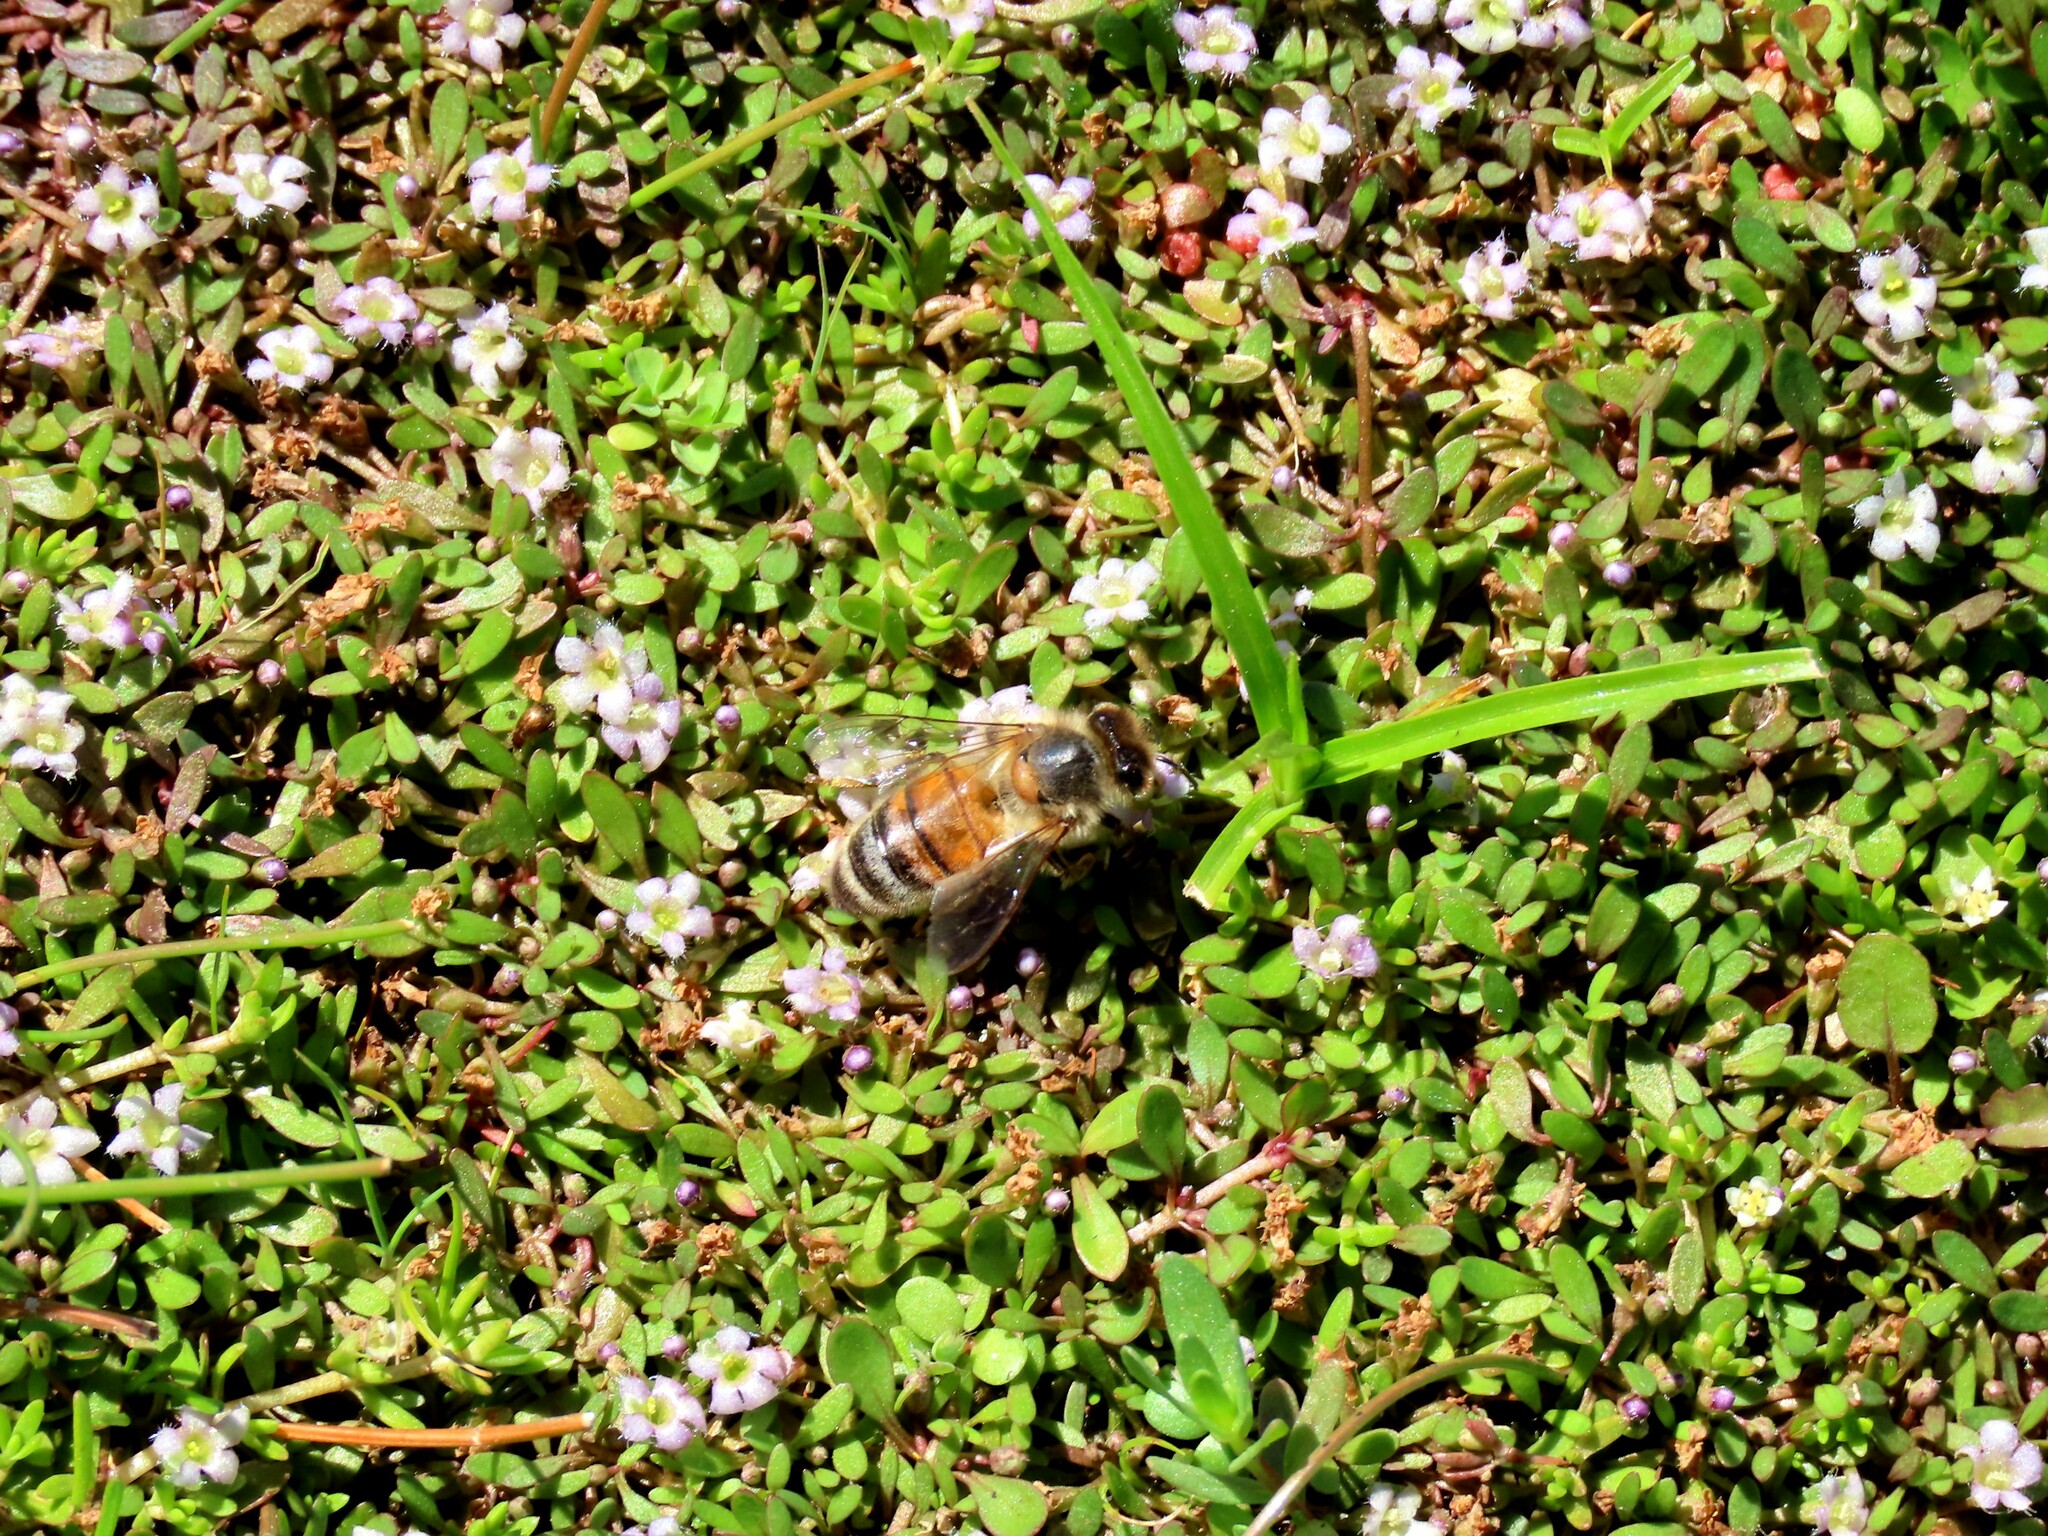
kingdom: Animalia
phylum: Arthropoda
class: Insecta
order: Hymenoptera
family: Apidae
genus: Apis
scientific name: Apis mellifera
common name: Honey bee
